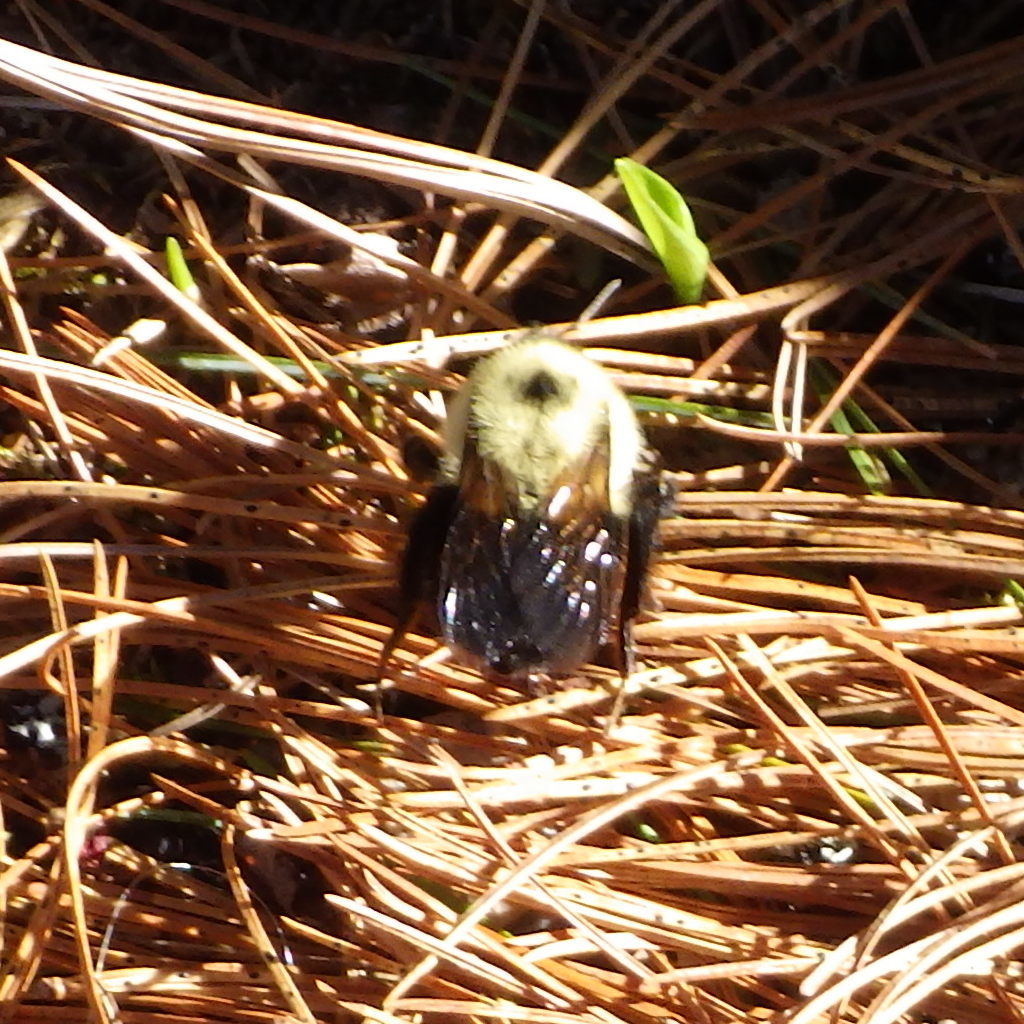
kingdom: Animalia
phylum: Arthropoda
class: Insecta
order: Hymenoptera
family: Apidae
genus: Bombus
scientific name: Bombus bimaculatus
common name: Two-spotted bumble bee
